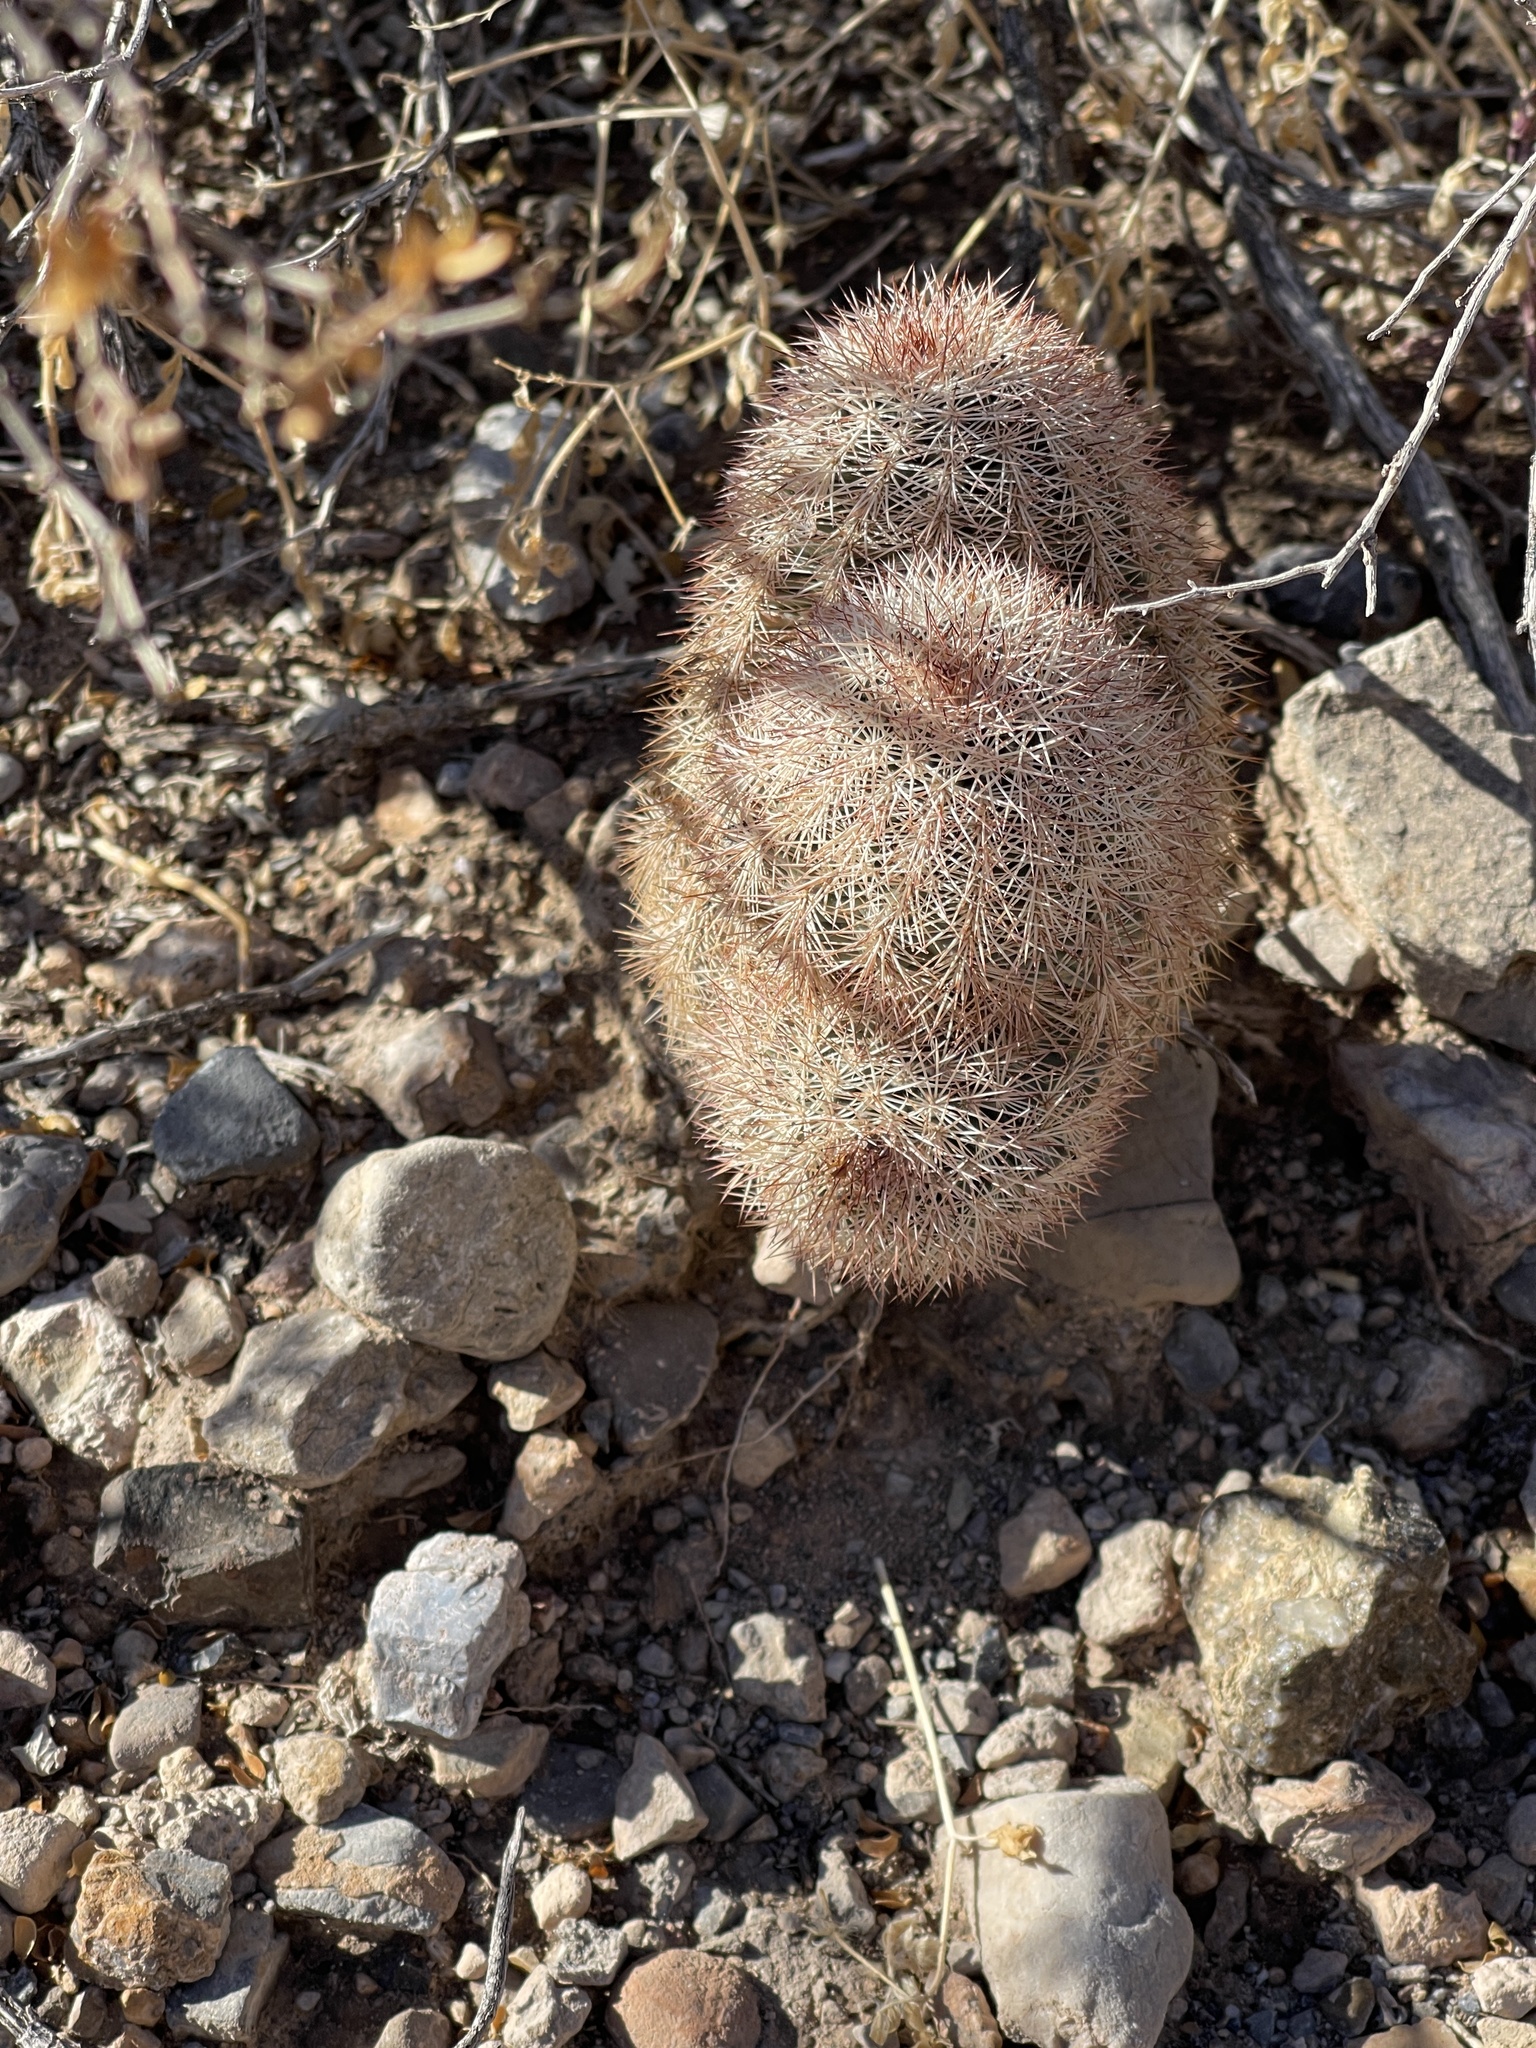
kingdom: Plantae
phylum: Tracheophyta
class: Magnoliopsida
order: Caryophyllales
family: Cactaceae
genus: Echinocereus
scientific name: Echinocereus dasyacanthus
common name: Spiny hedgehog cactus
